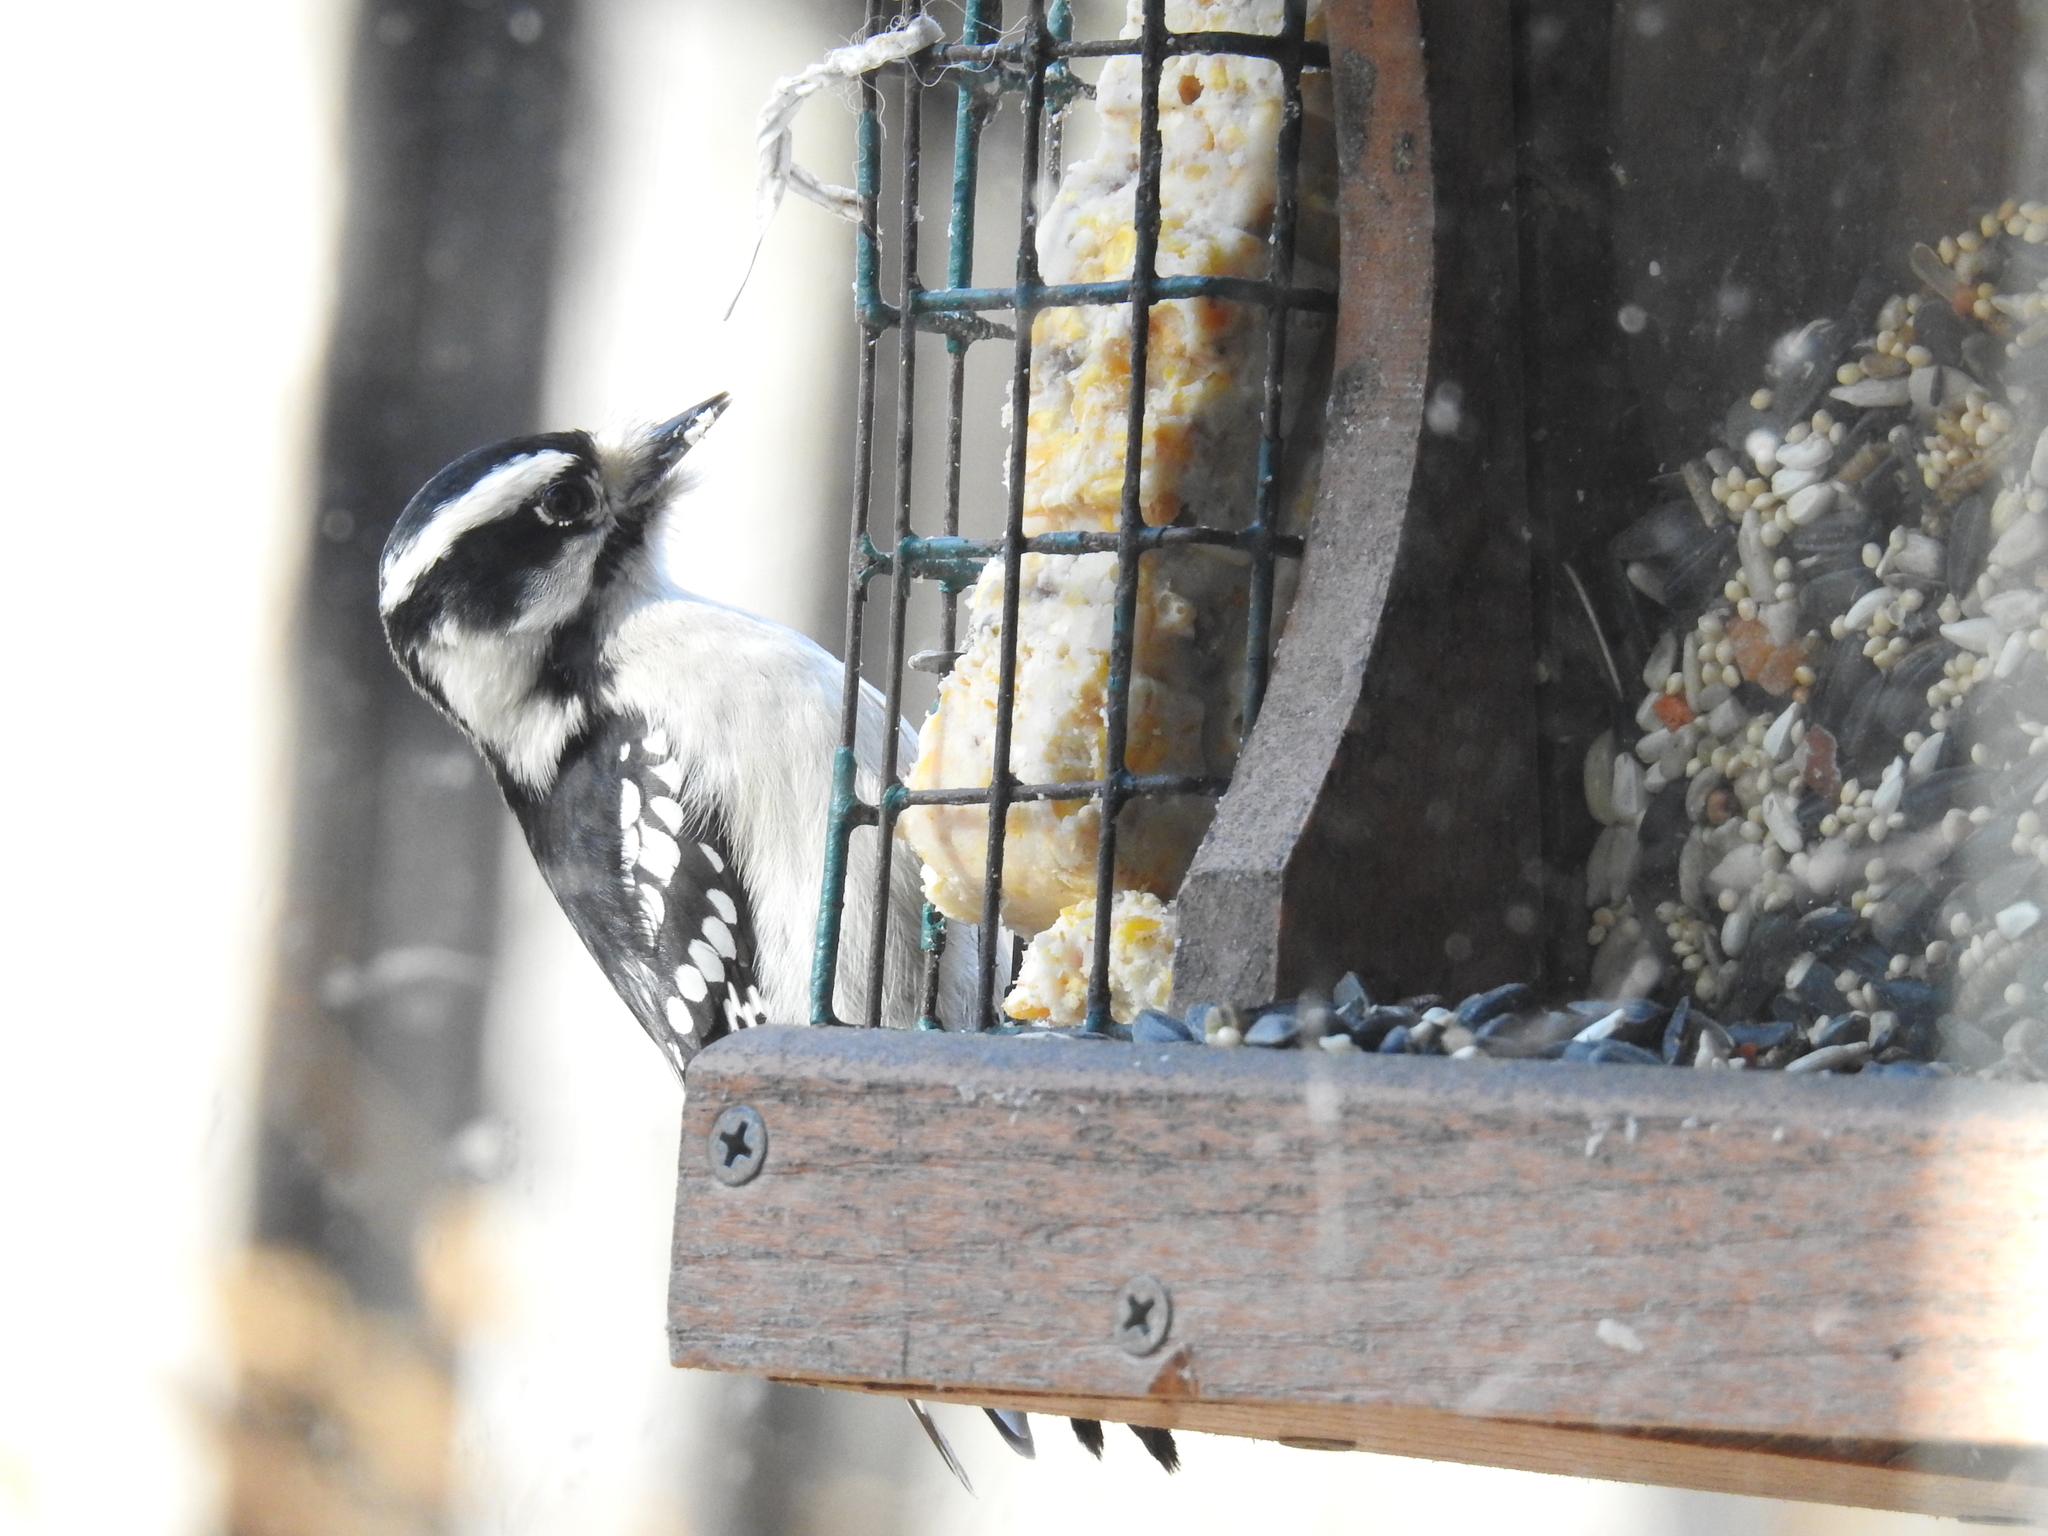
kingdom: Animalia
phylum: Chordata
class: Aves
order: Piciformes
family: Picidae
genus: Leuconotopicus
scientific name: Leuconotopicus villosus
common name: Hairy woodpecker
